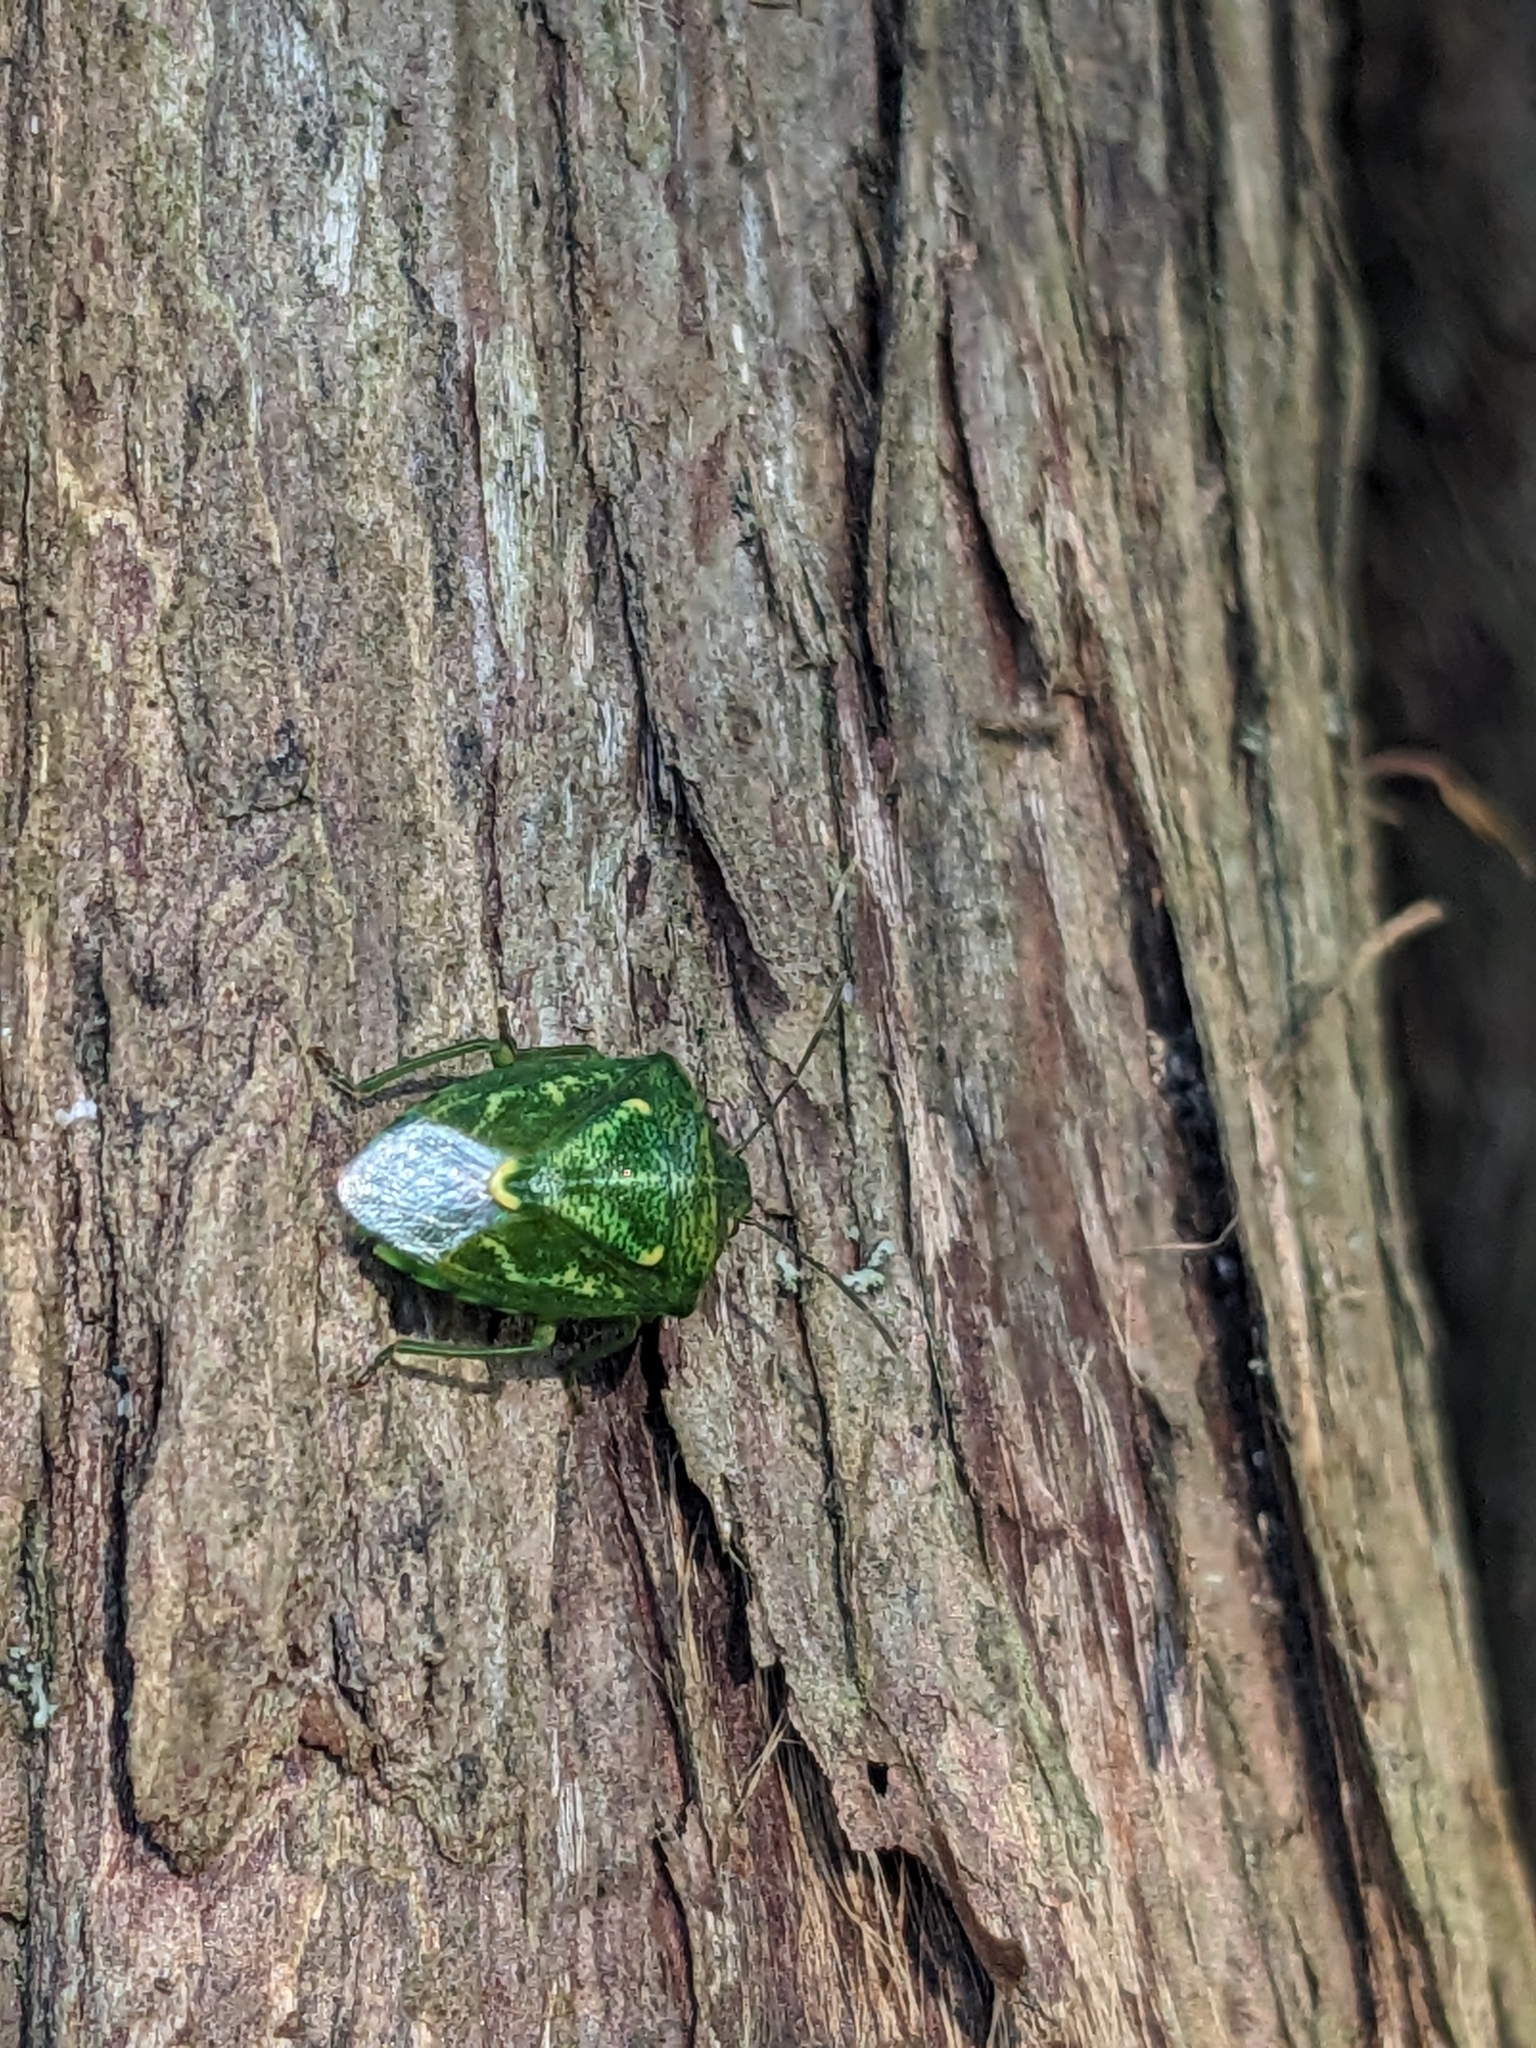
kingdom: Animalia
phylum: Arthropoda
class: Insecta
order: Hemiptera
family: Pentatomidae
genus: Banasa
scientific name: Banasa euchlora
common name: Cedar berry bug
